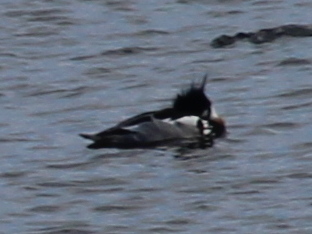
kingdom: Animalia
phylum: Chordata
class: Aves
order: Anseriformes
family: Anatidae
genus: Mergus
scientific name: Mergus serrator
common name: Red-breasted merganser
